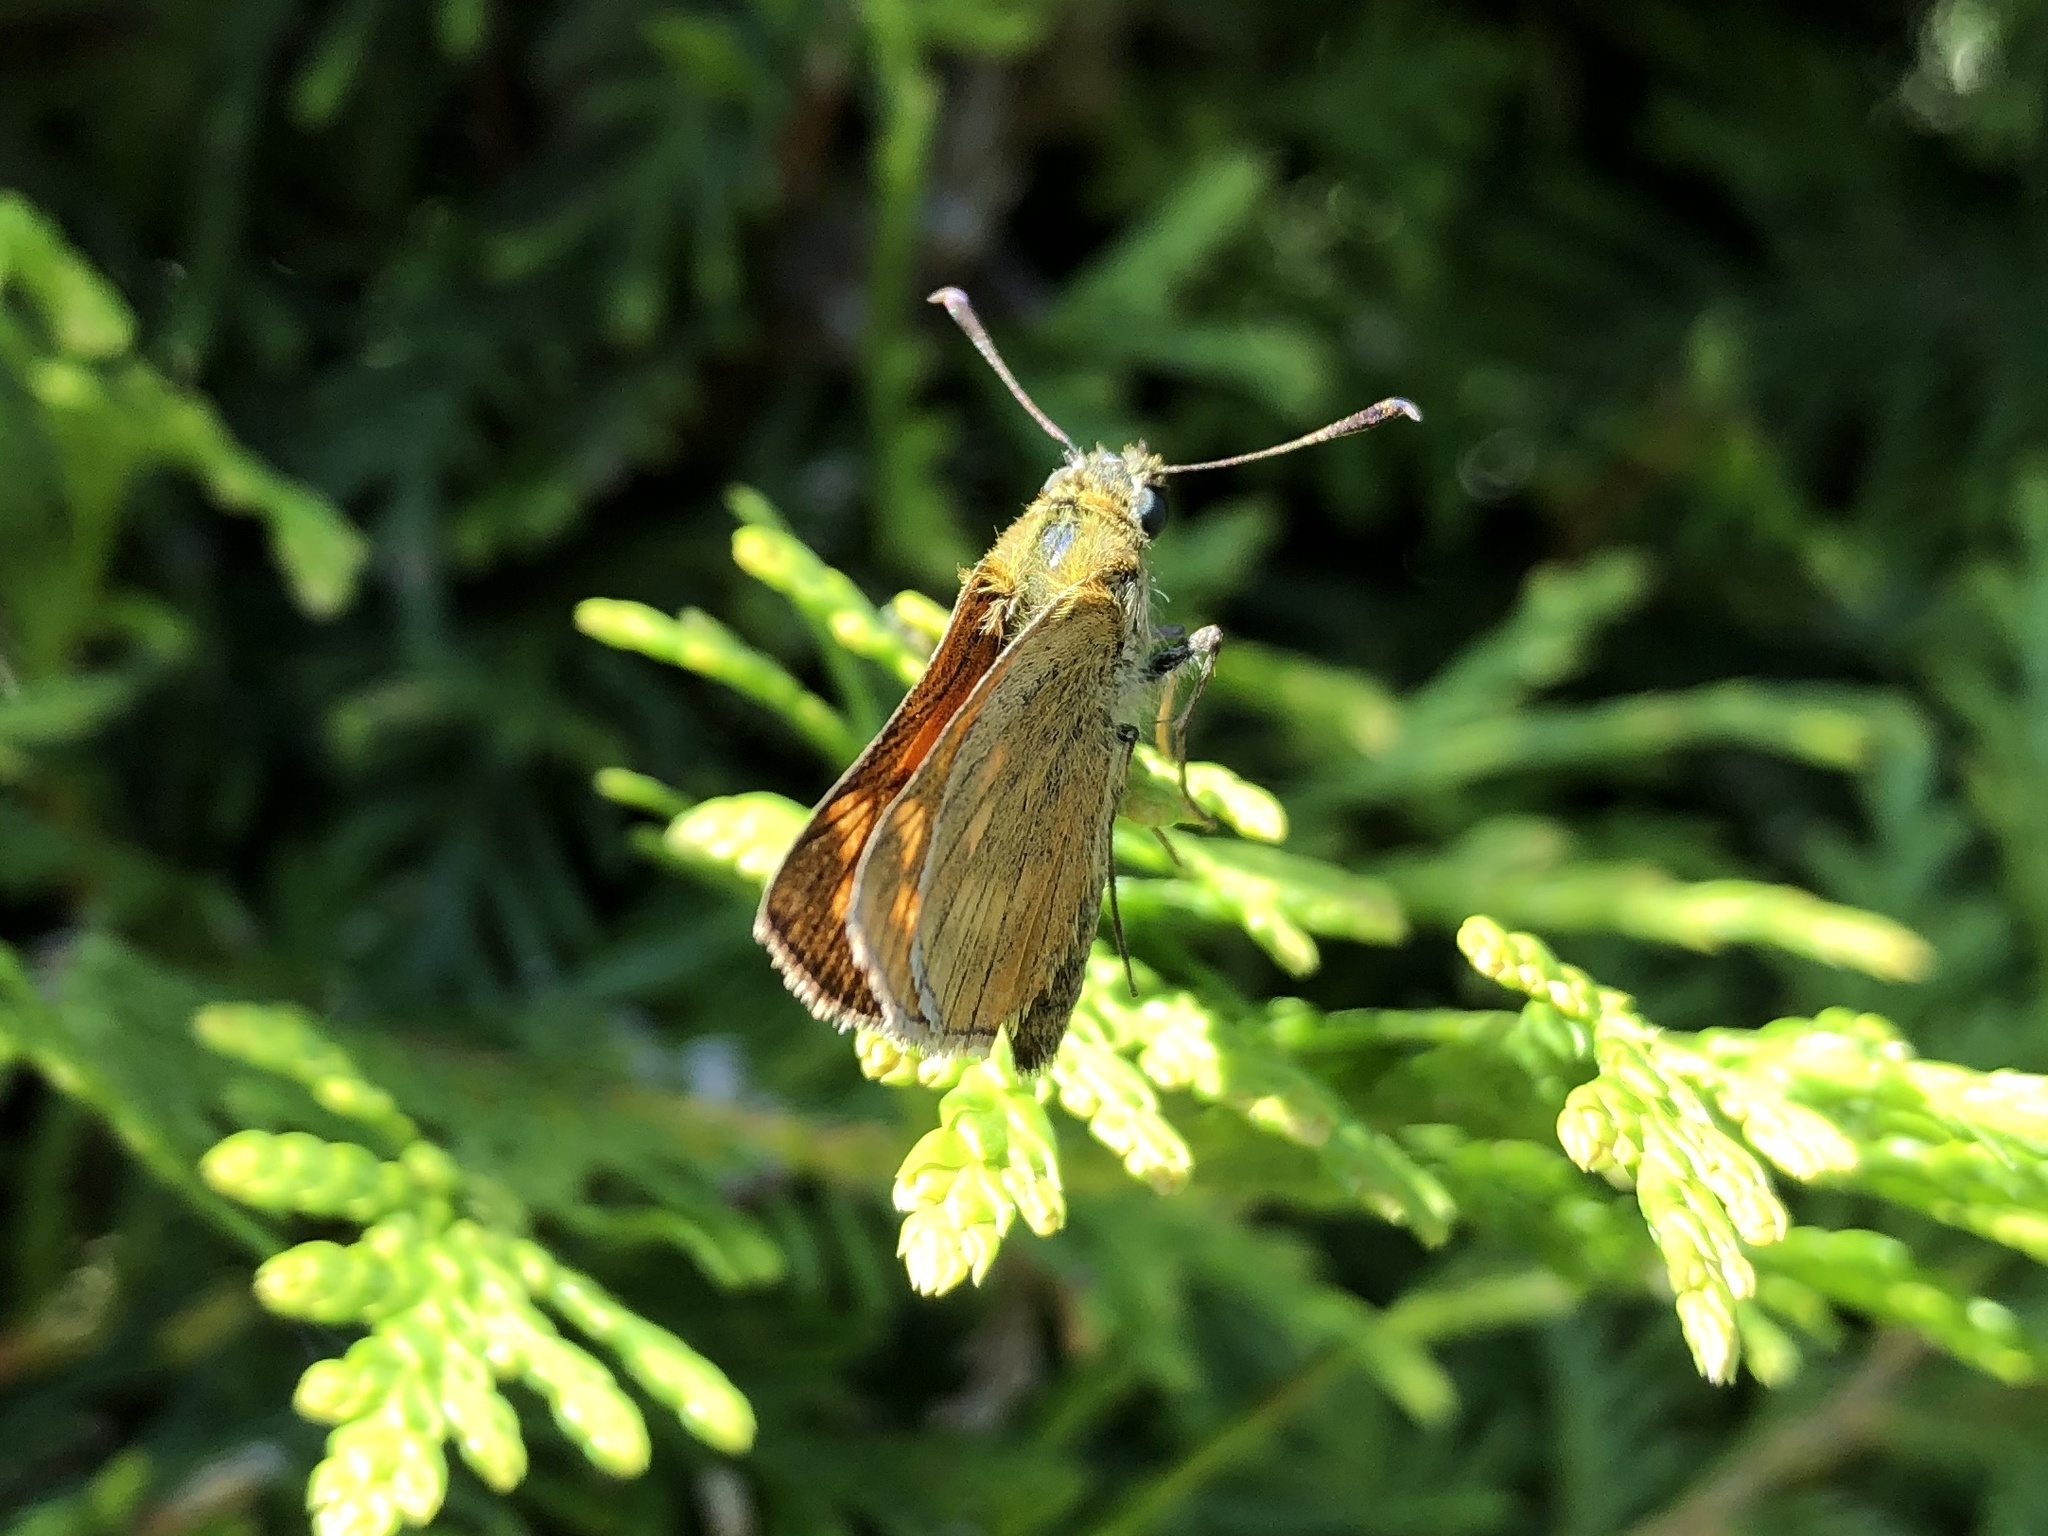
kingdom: Animalia
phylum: Arthropoda
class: Insecta
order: Lepidoptera
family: Hesperiidae
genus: Ochlodes
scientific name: Ochlodes venata
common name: Large skipper
